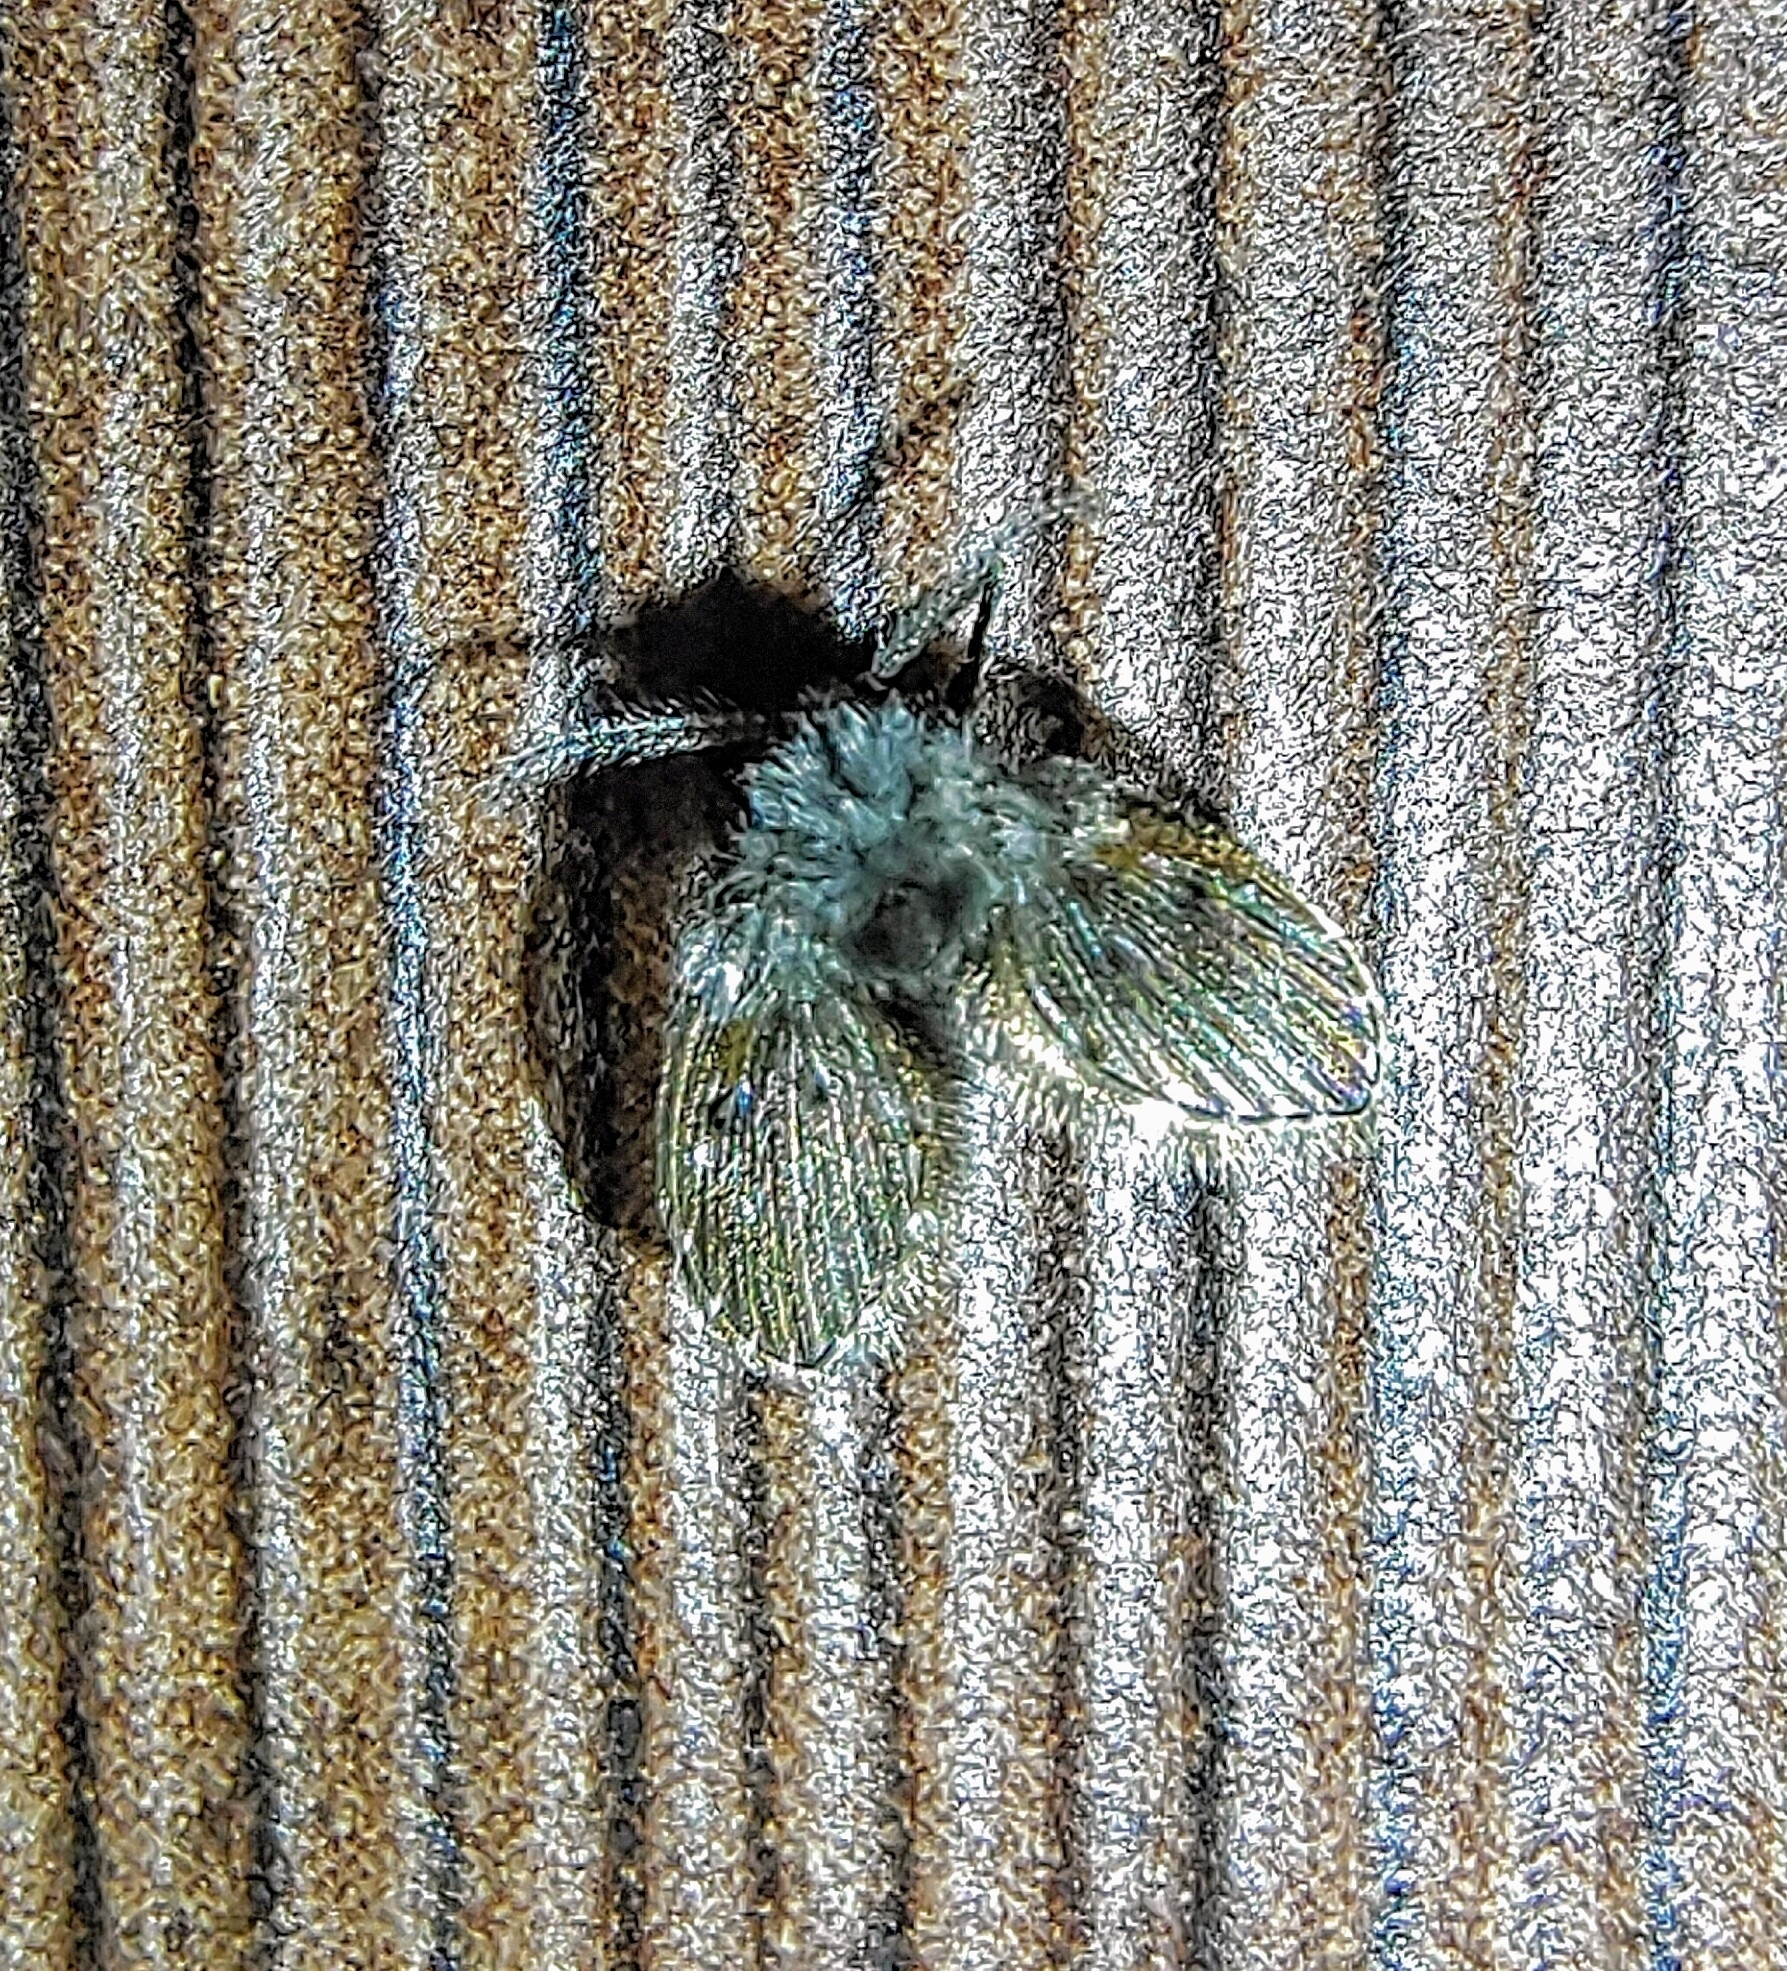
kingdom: Animalia
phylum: Arthropoda
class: Insecta
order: Diptera
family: Psychodidae
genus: Clogmia
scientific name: Clogmia albipunctatus
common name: White-spotted moth fly
